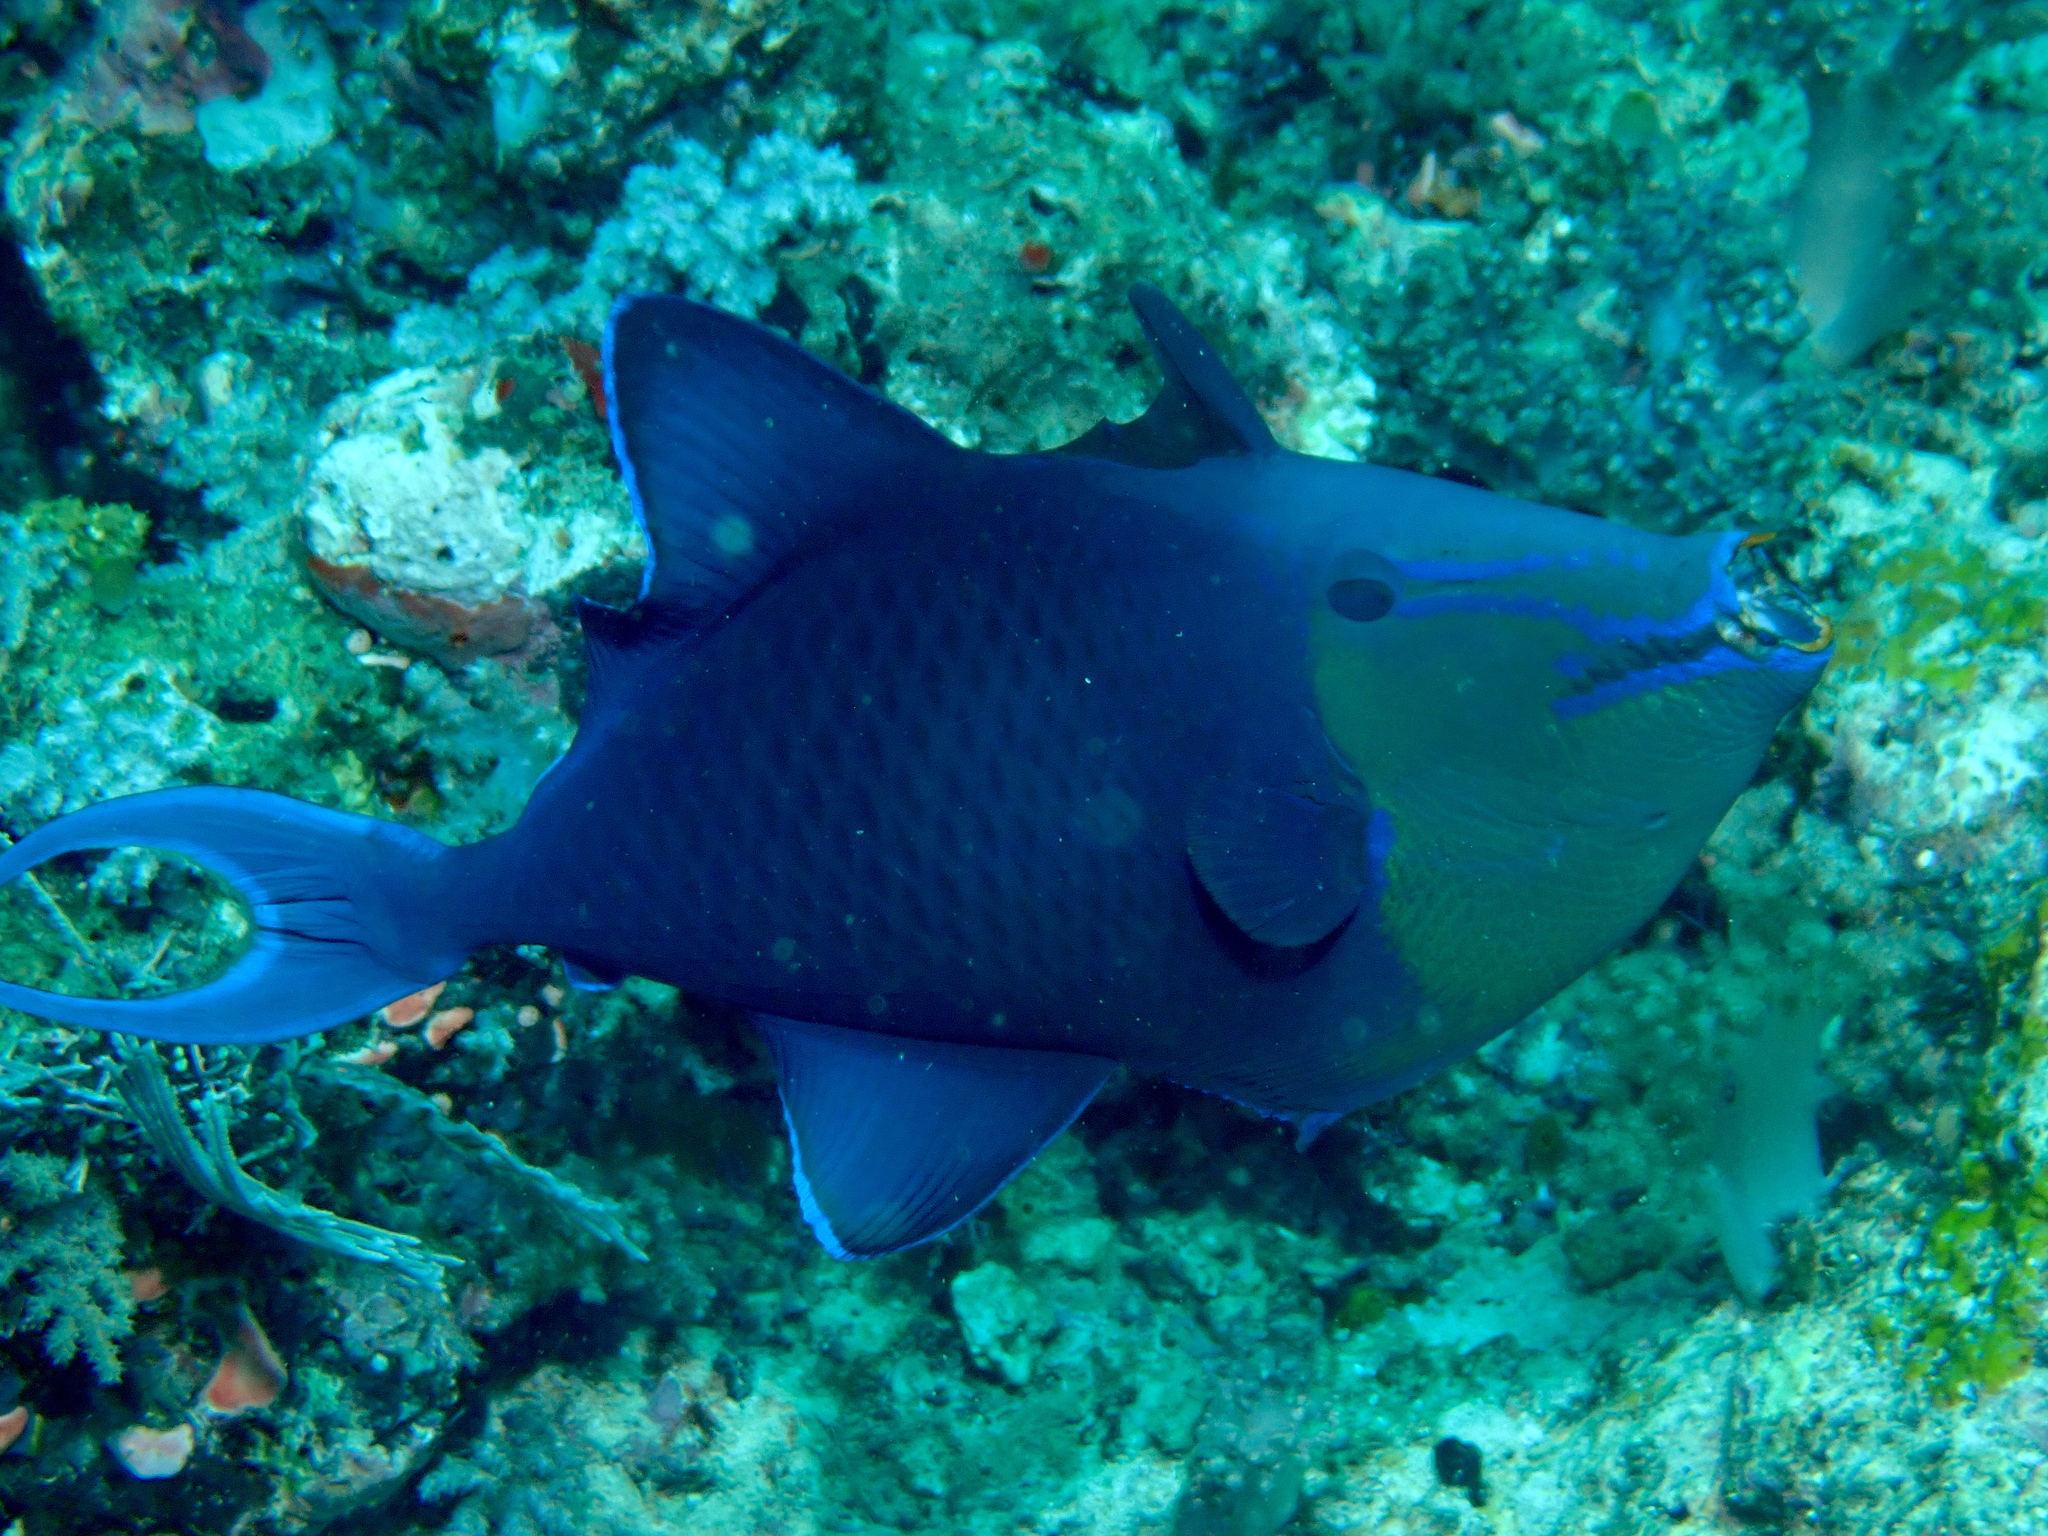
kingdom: Animalia
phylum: Chordata
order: Tetraodontiformes
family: Balistidae
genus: Odonus
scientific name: Odonus niger
